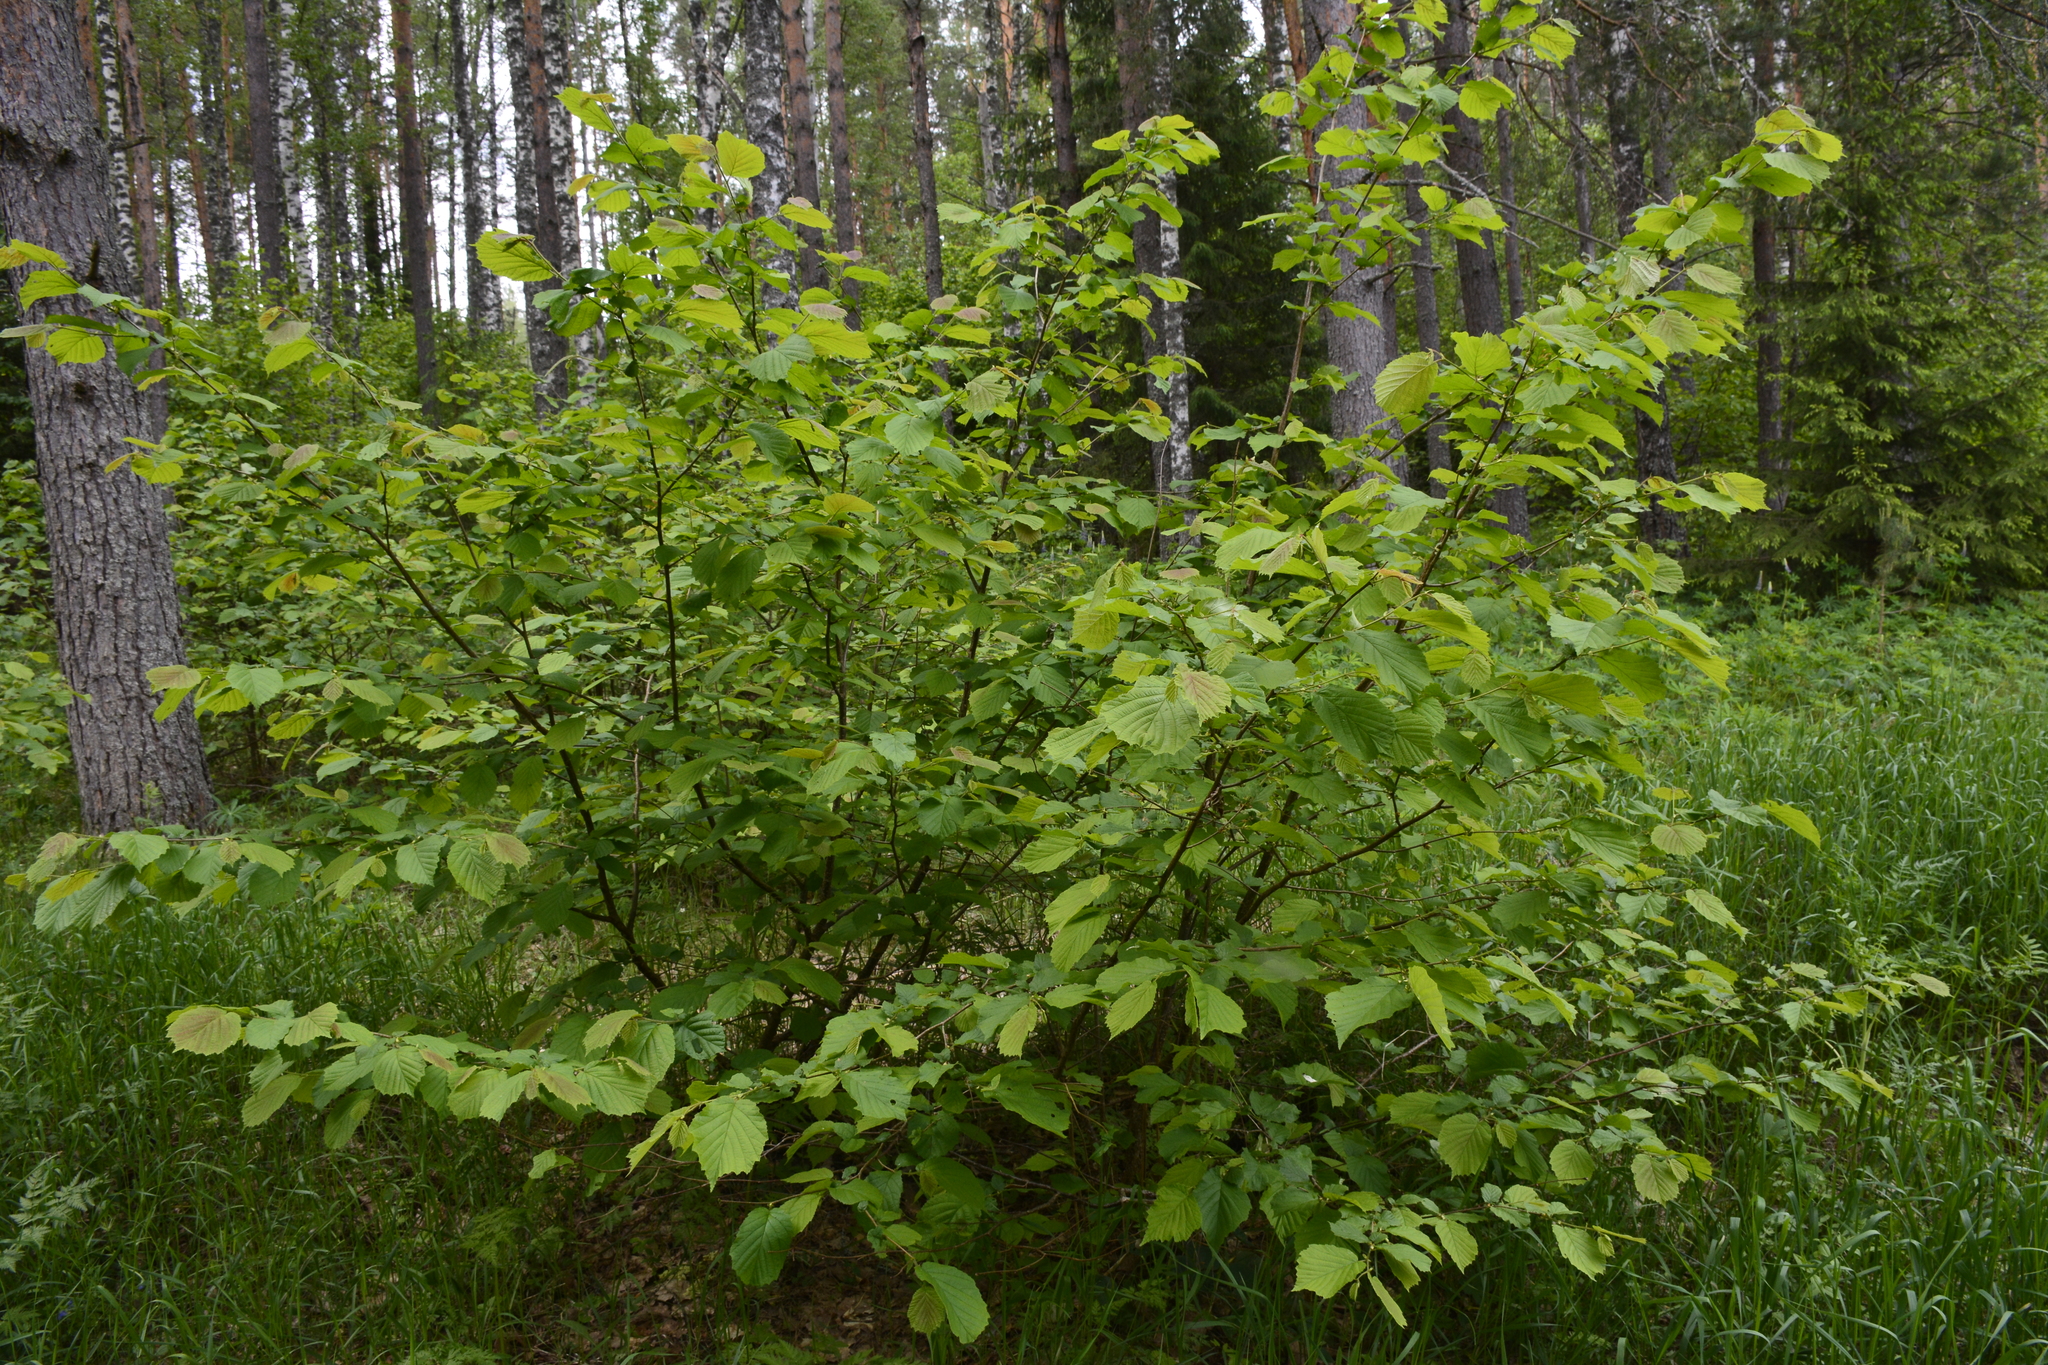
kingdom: Plantae
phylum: Tracheophyta
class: Magnoliopsida
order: Fagales
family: Betulaceae
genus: Corylus
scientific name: Corylus avellana
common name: European hazel
